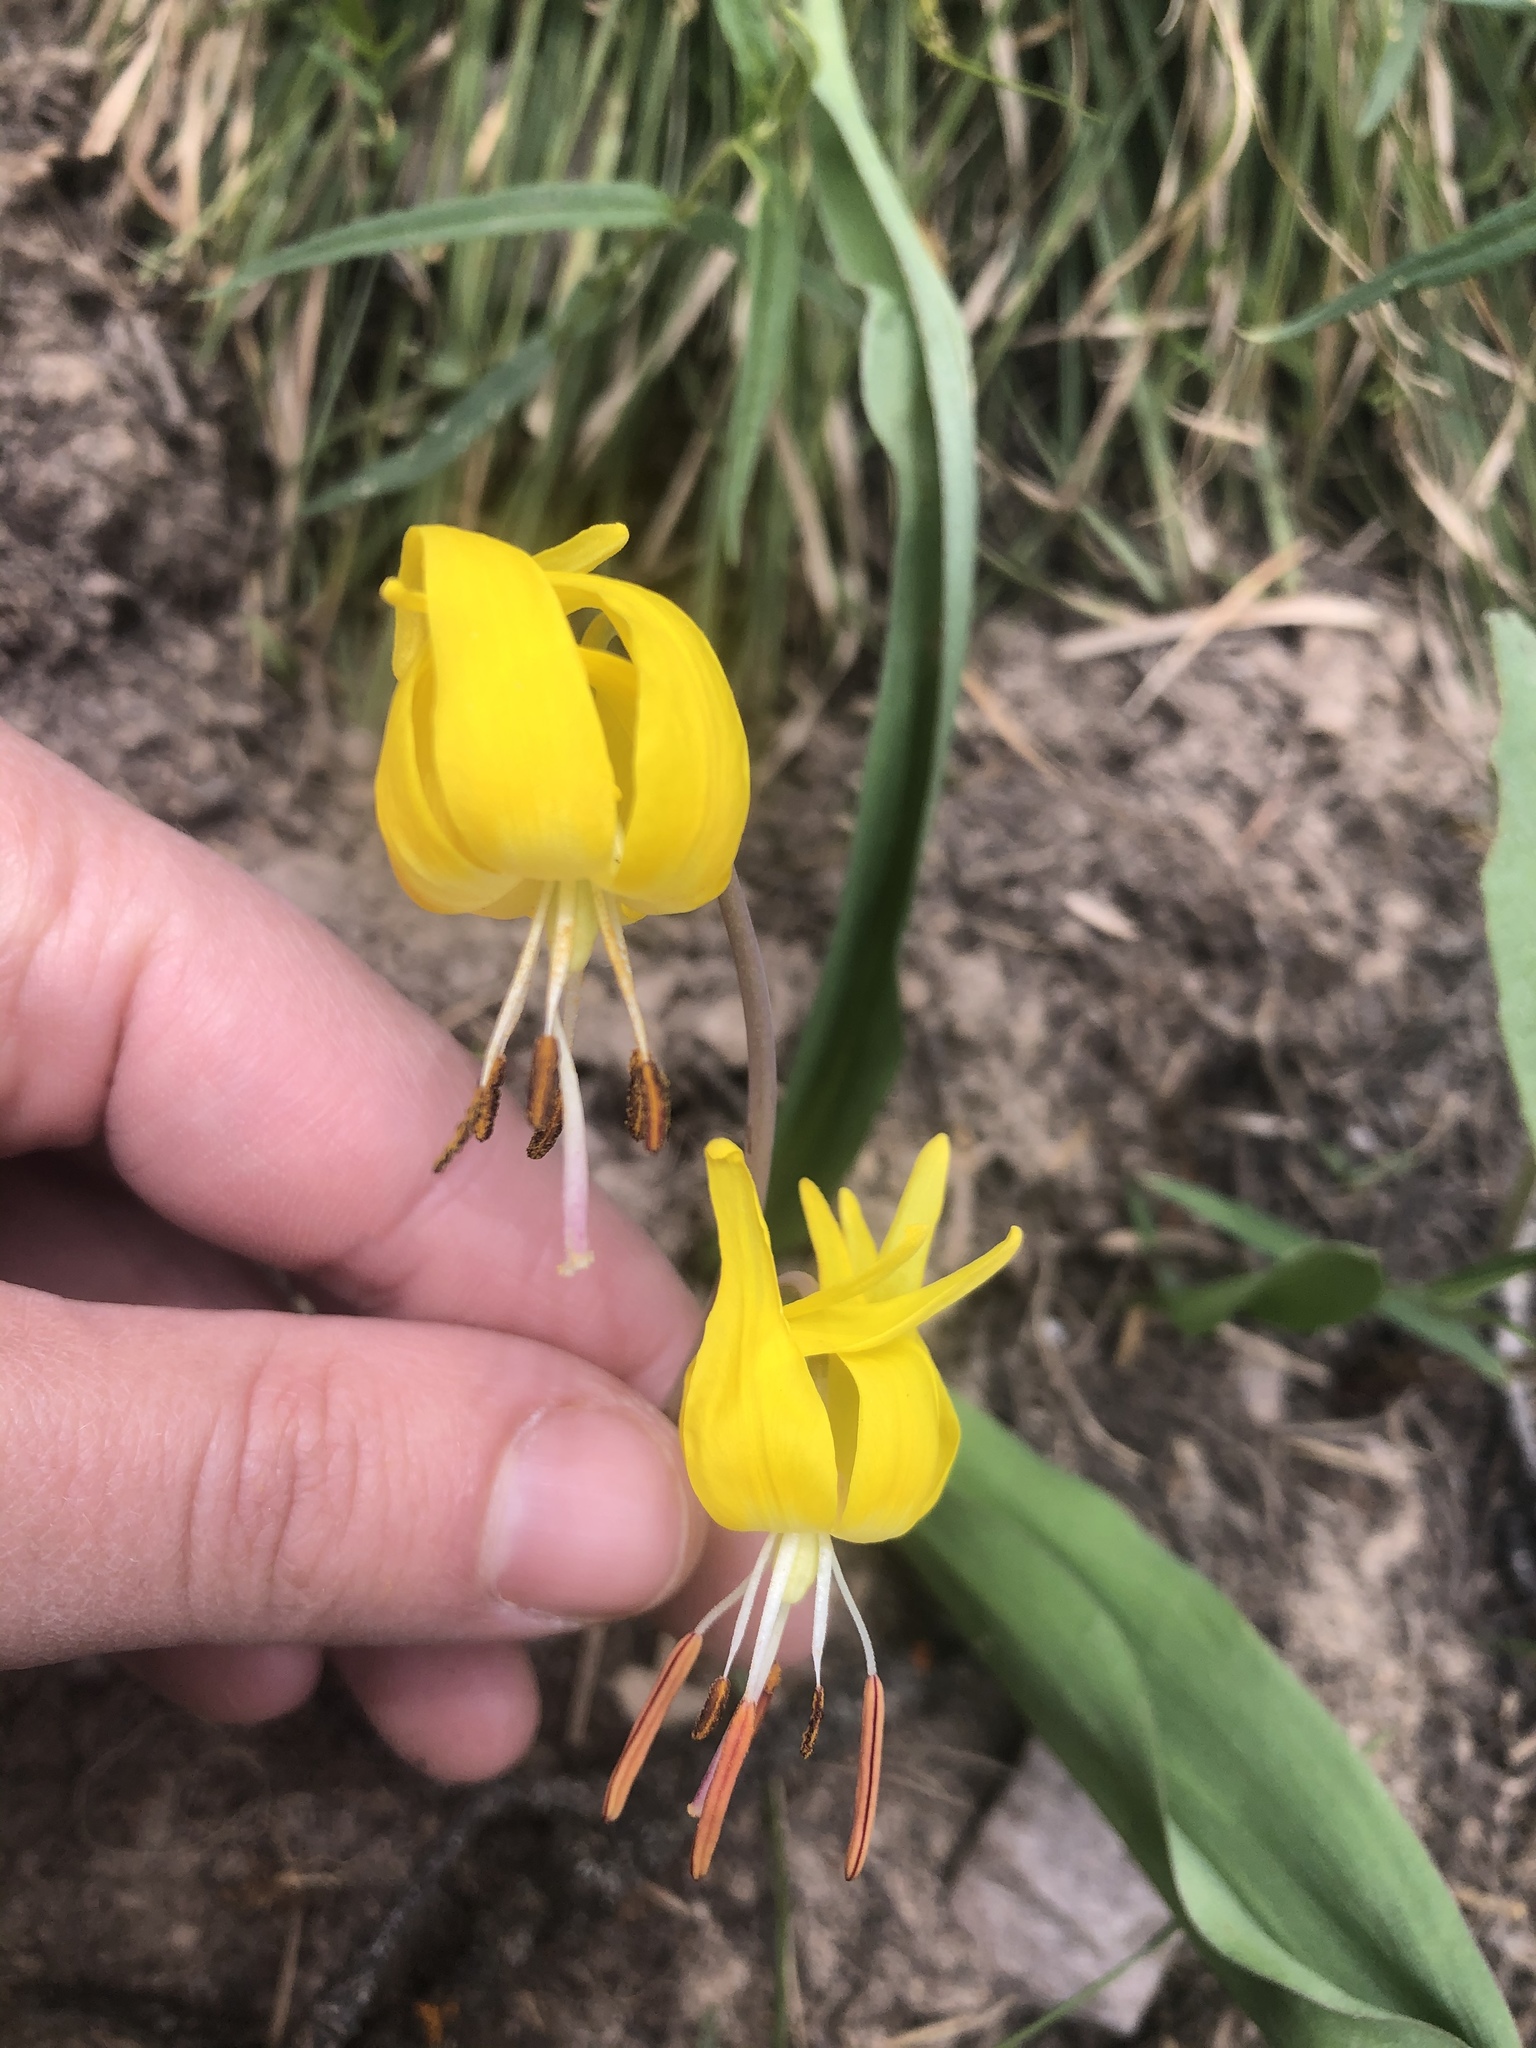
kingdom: Plantae
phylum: Tracheophyta
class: Liliopsida
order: Liliales
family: Liliaceae
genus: Erythronium
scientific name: Erythronium grandiflorum
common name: Avalanche-lily
